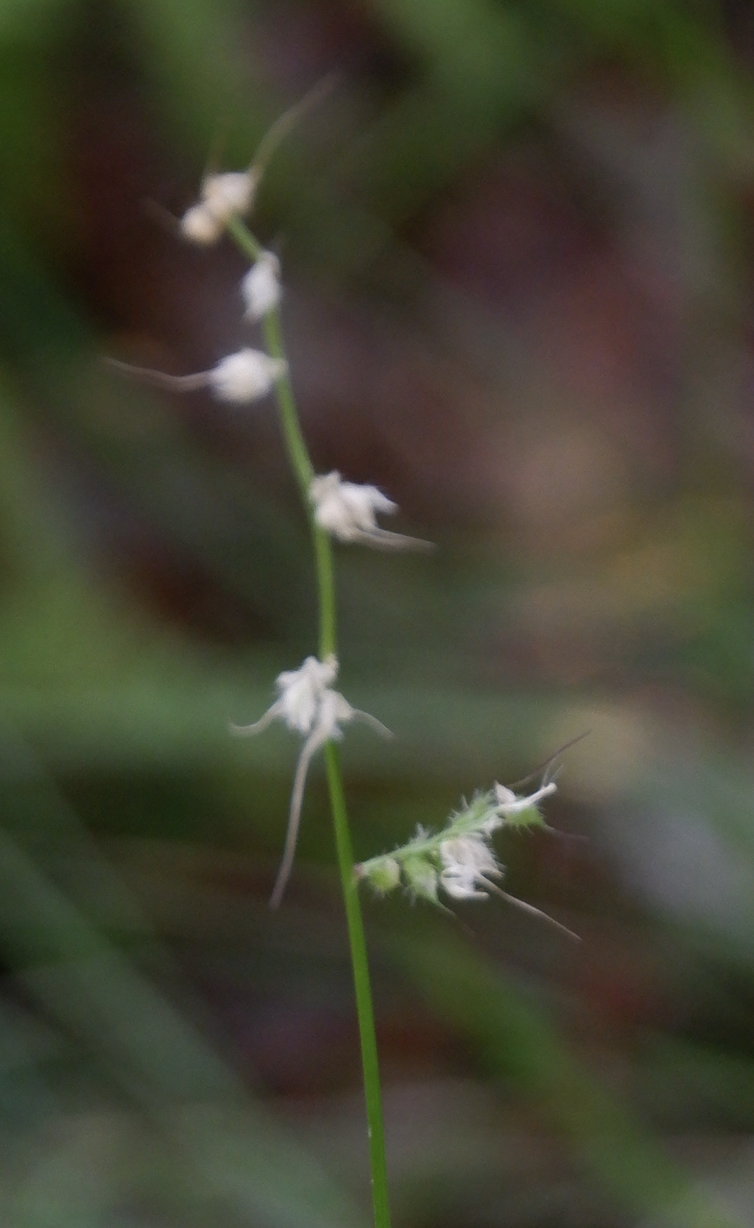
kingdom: Plantae
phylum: Tracheophyta
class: Liliopsida
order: Poales
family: Poaceae
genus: Oplismenus
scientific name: Oplismenus undulatifolius
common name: Wavyleaf basketgrass
